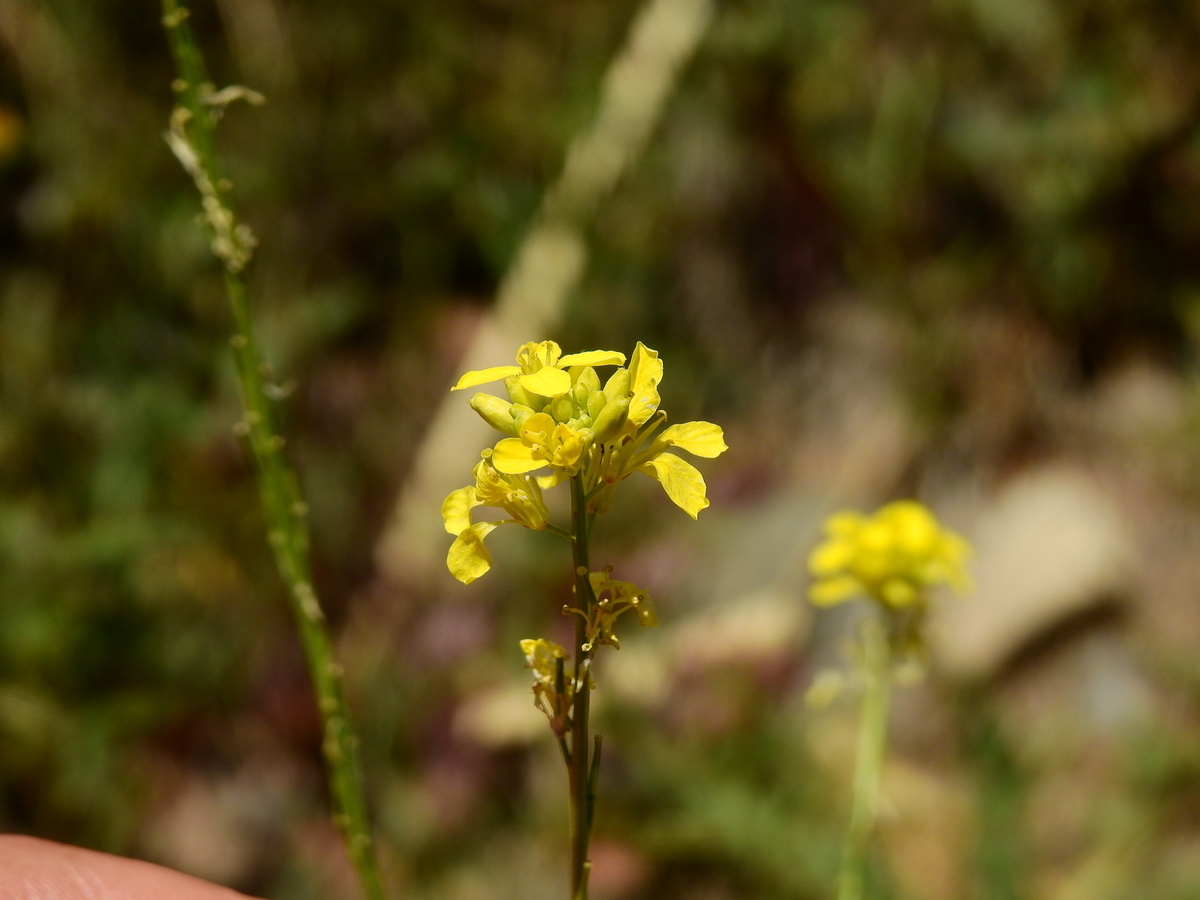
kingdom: Plantae
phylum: Tracheophyta
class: Magnoliopsida
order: Brassicales
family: Brassicaceae
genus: Hirschfeldia
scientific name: Hirschfeldia incana
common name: Hoary mustard
